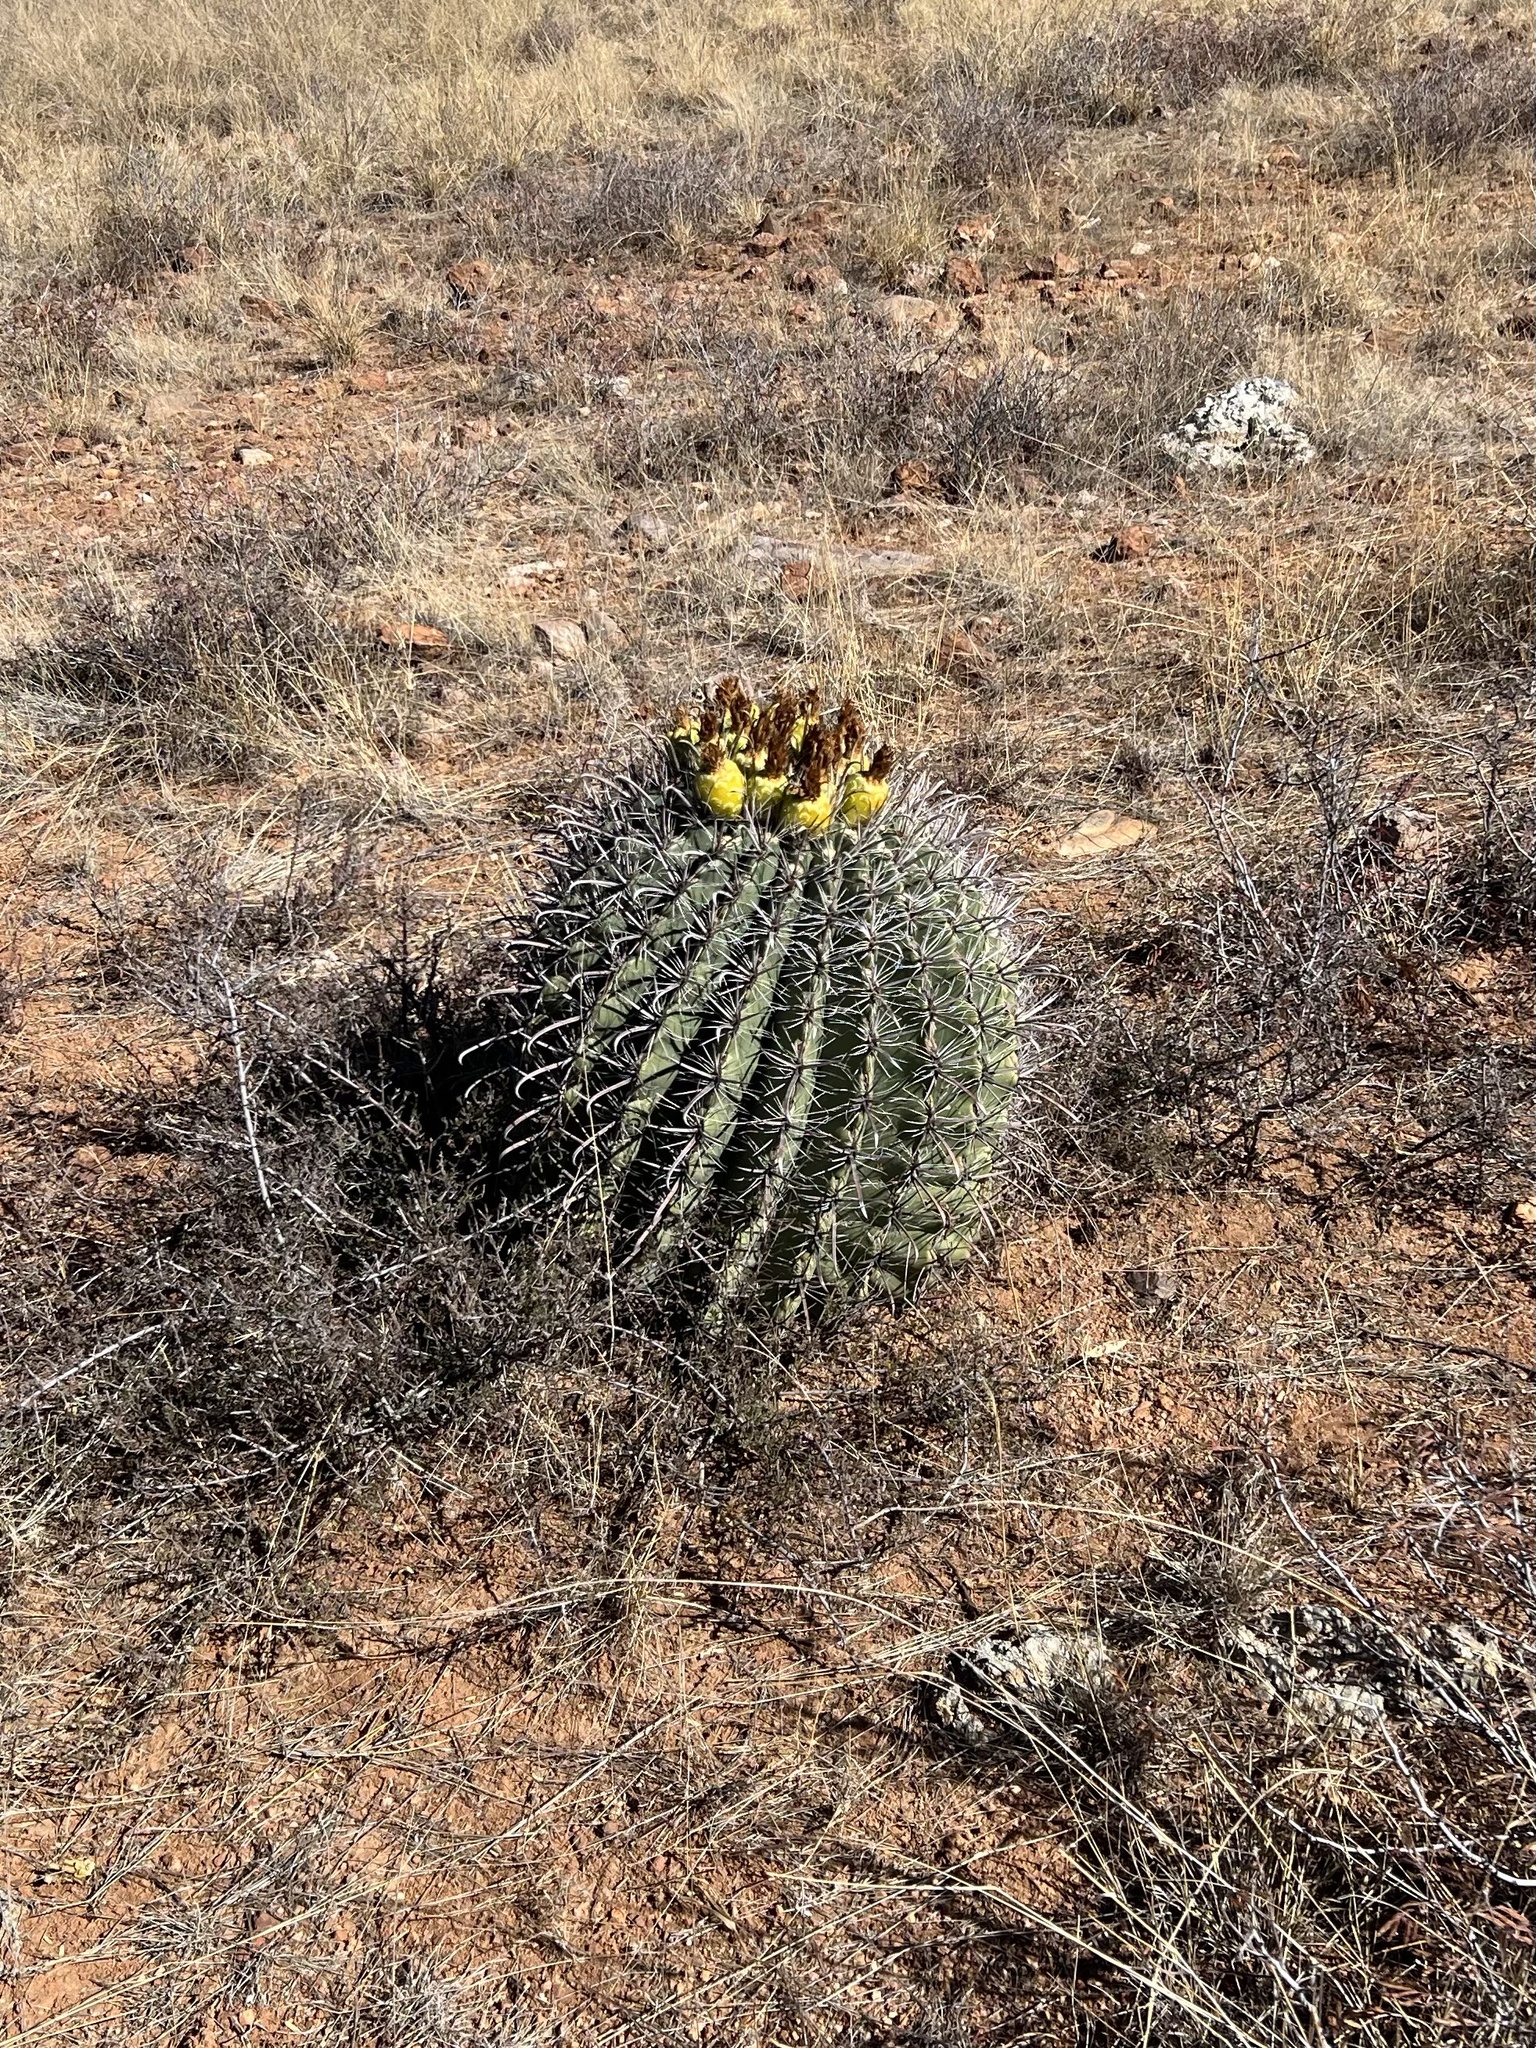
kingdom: Plantae
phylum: Tracheophyta
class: Magnoliopsida
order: Caryophyllales
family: Cactaceae
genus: Ferocactus
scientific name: Ferocactus wislizeni
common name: Candy barrel cactus
